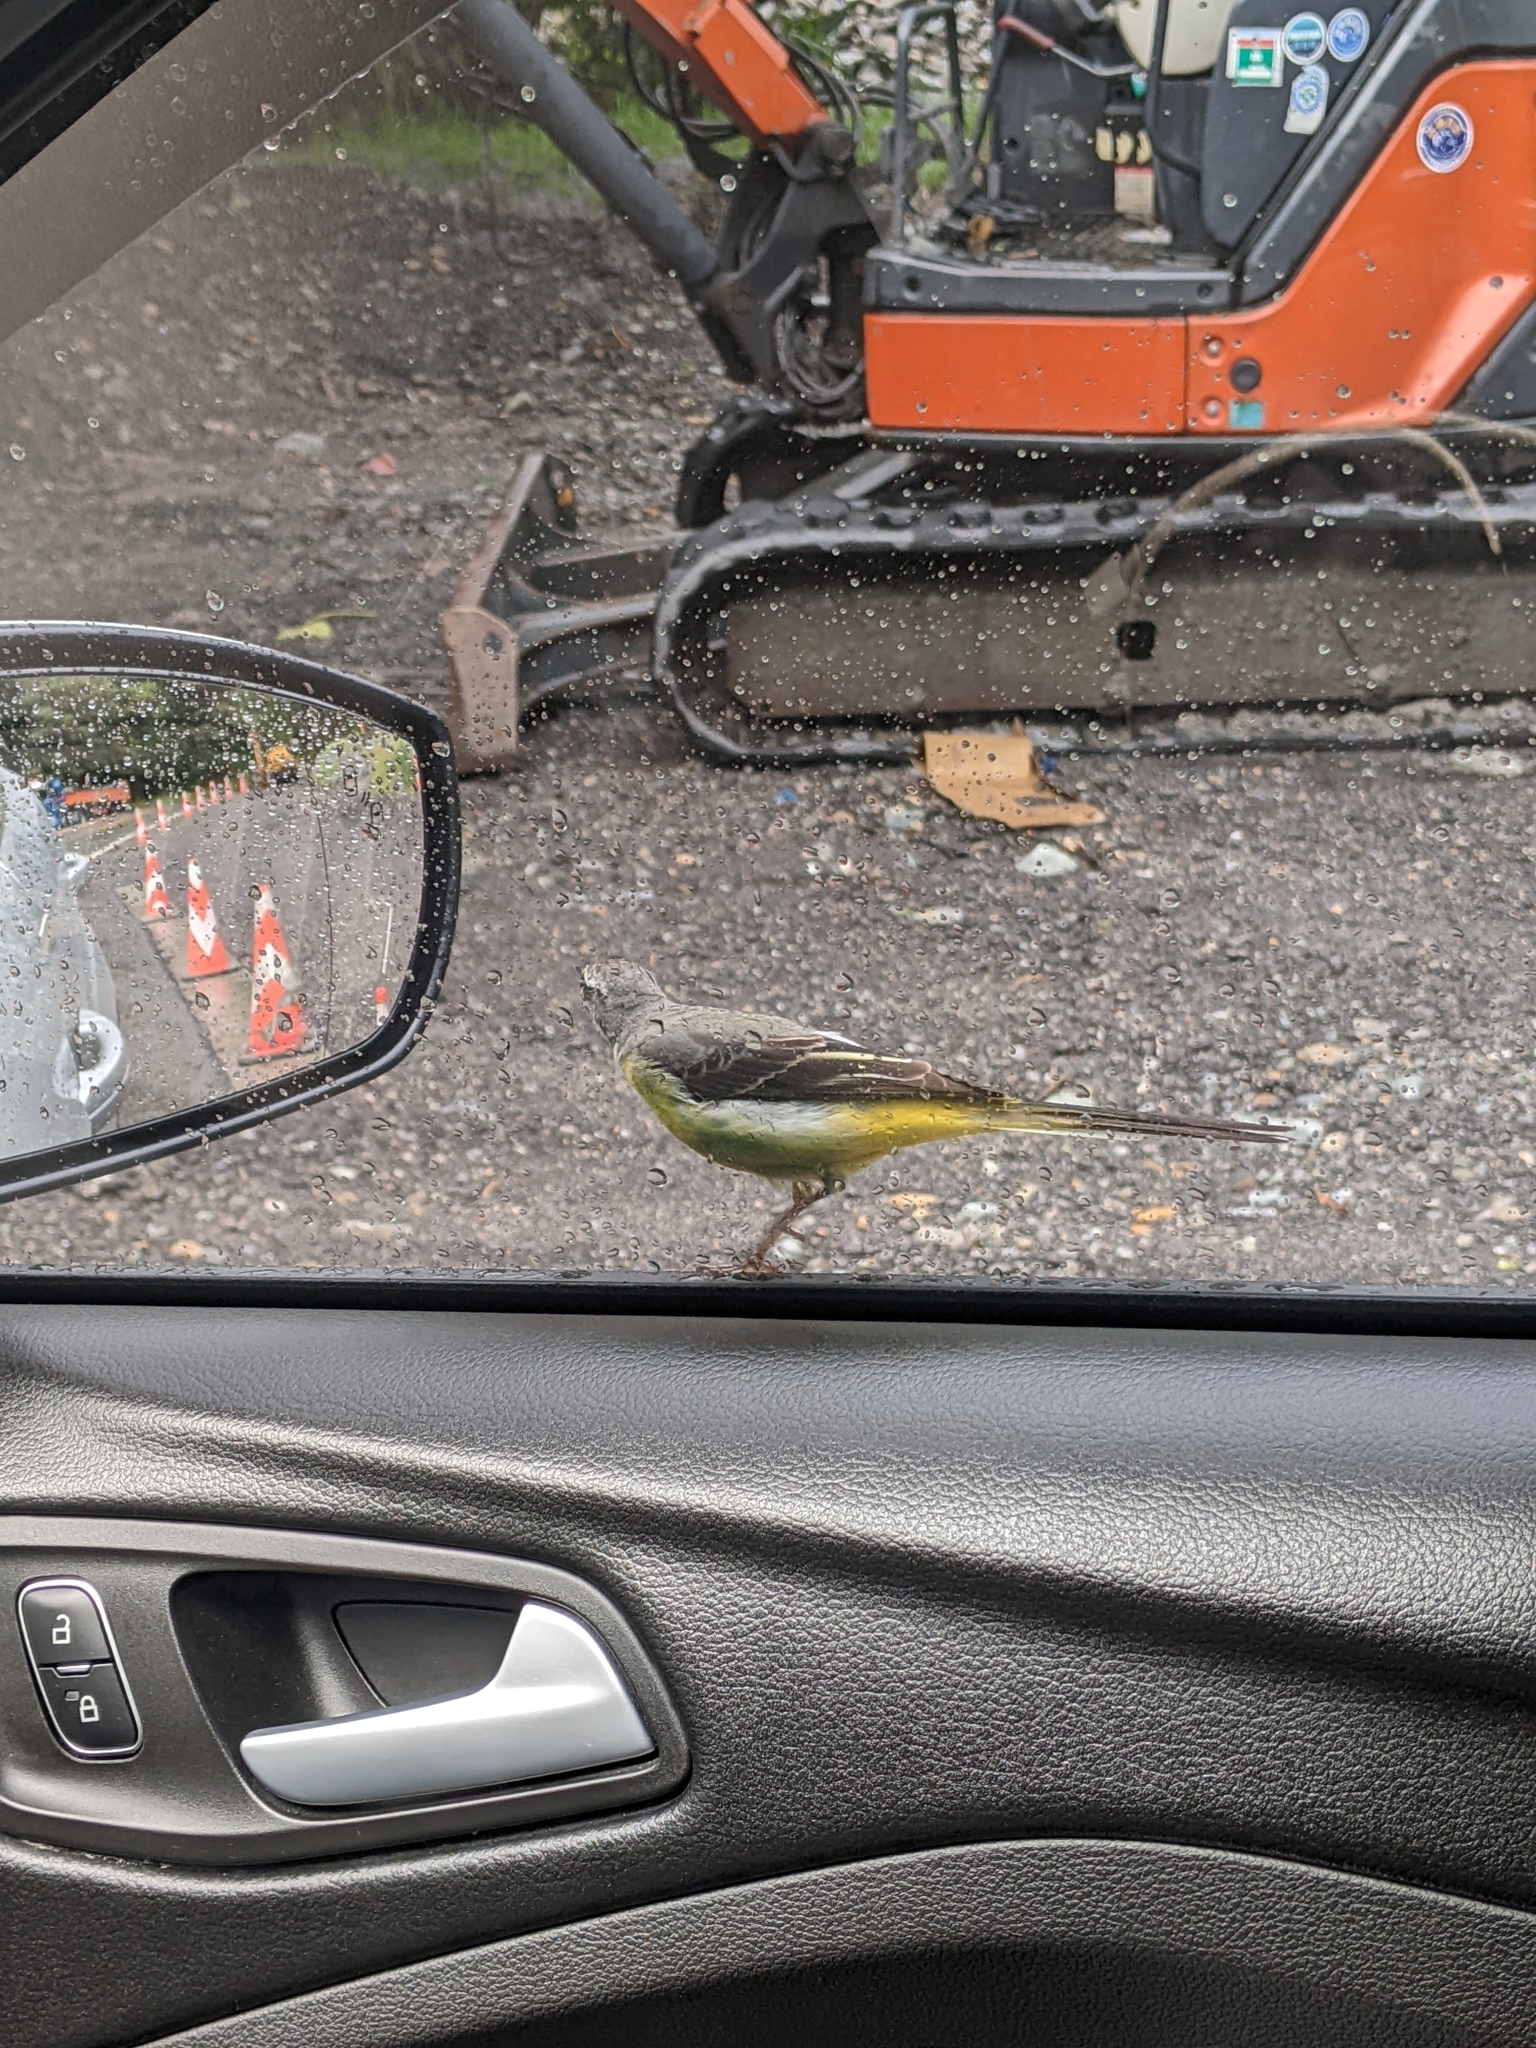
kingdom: Animalia
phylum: Chordata
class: Aves
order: Passeriformes
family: Motacillidae
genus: Motacilla
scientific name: Motacilla cinerea
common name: Grey wagtail
